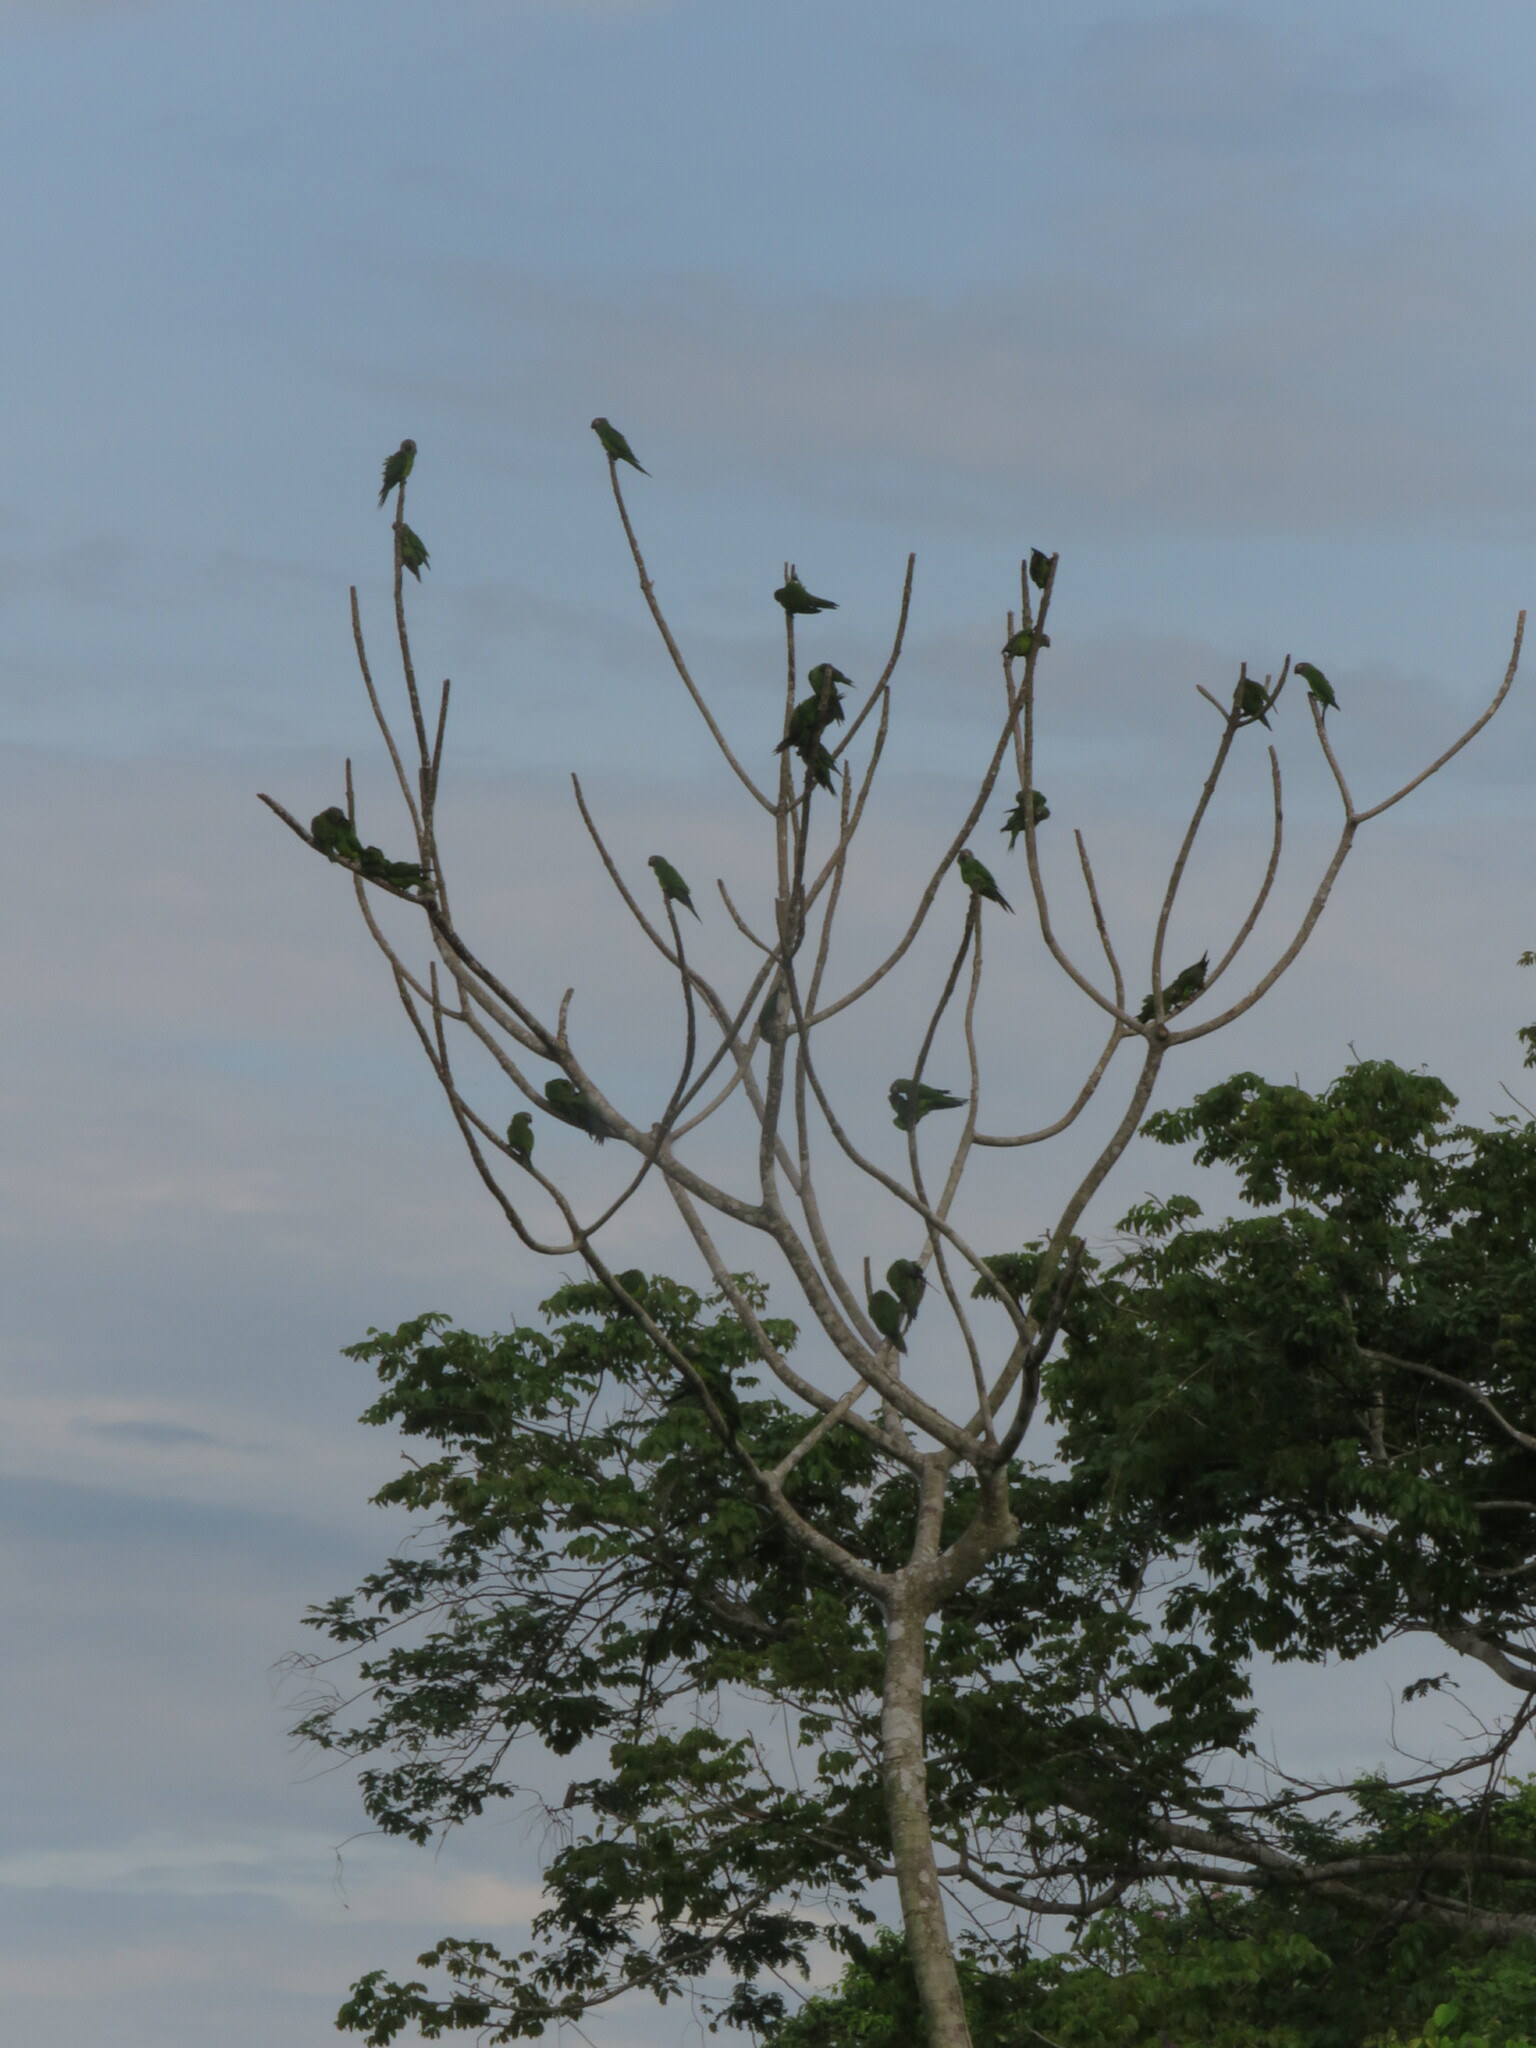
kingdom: Animalia
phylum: Chordata
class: Aves
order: Psittaciformes
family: Psittacidae
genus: Aratinga
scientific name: Aratinga weddellii
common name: Dusky-headed parakeet
